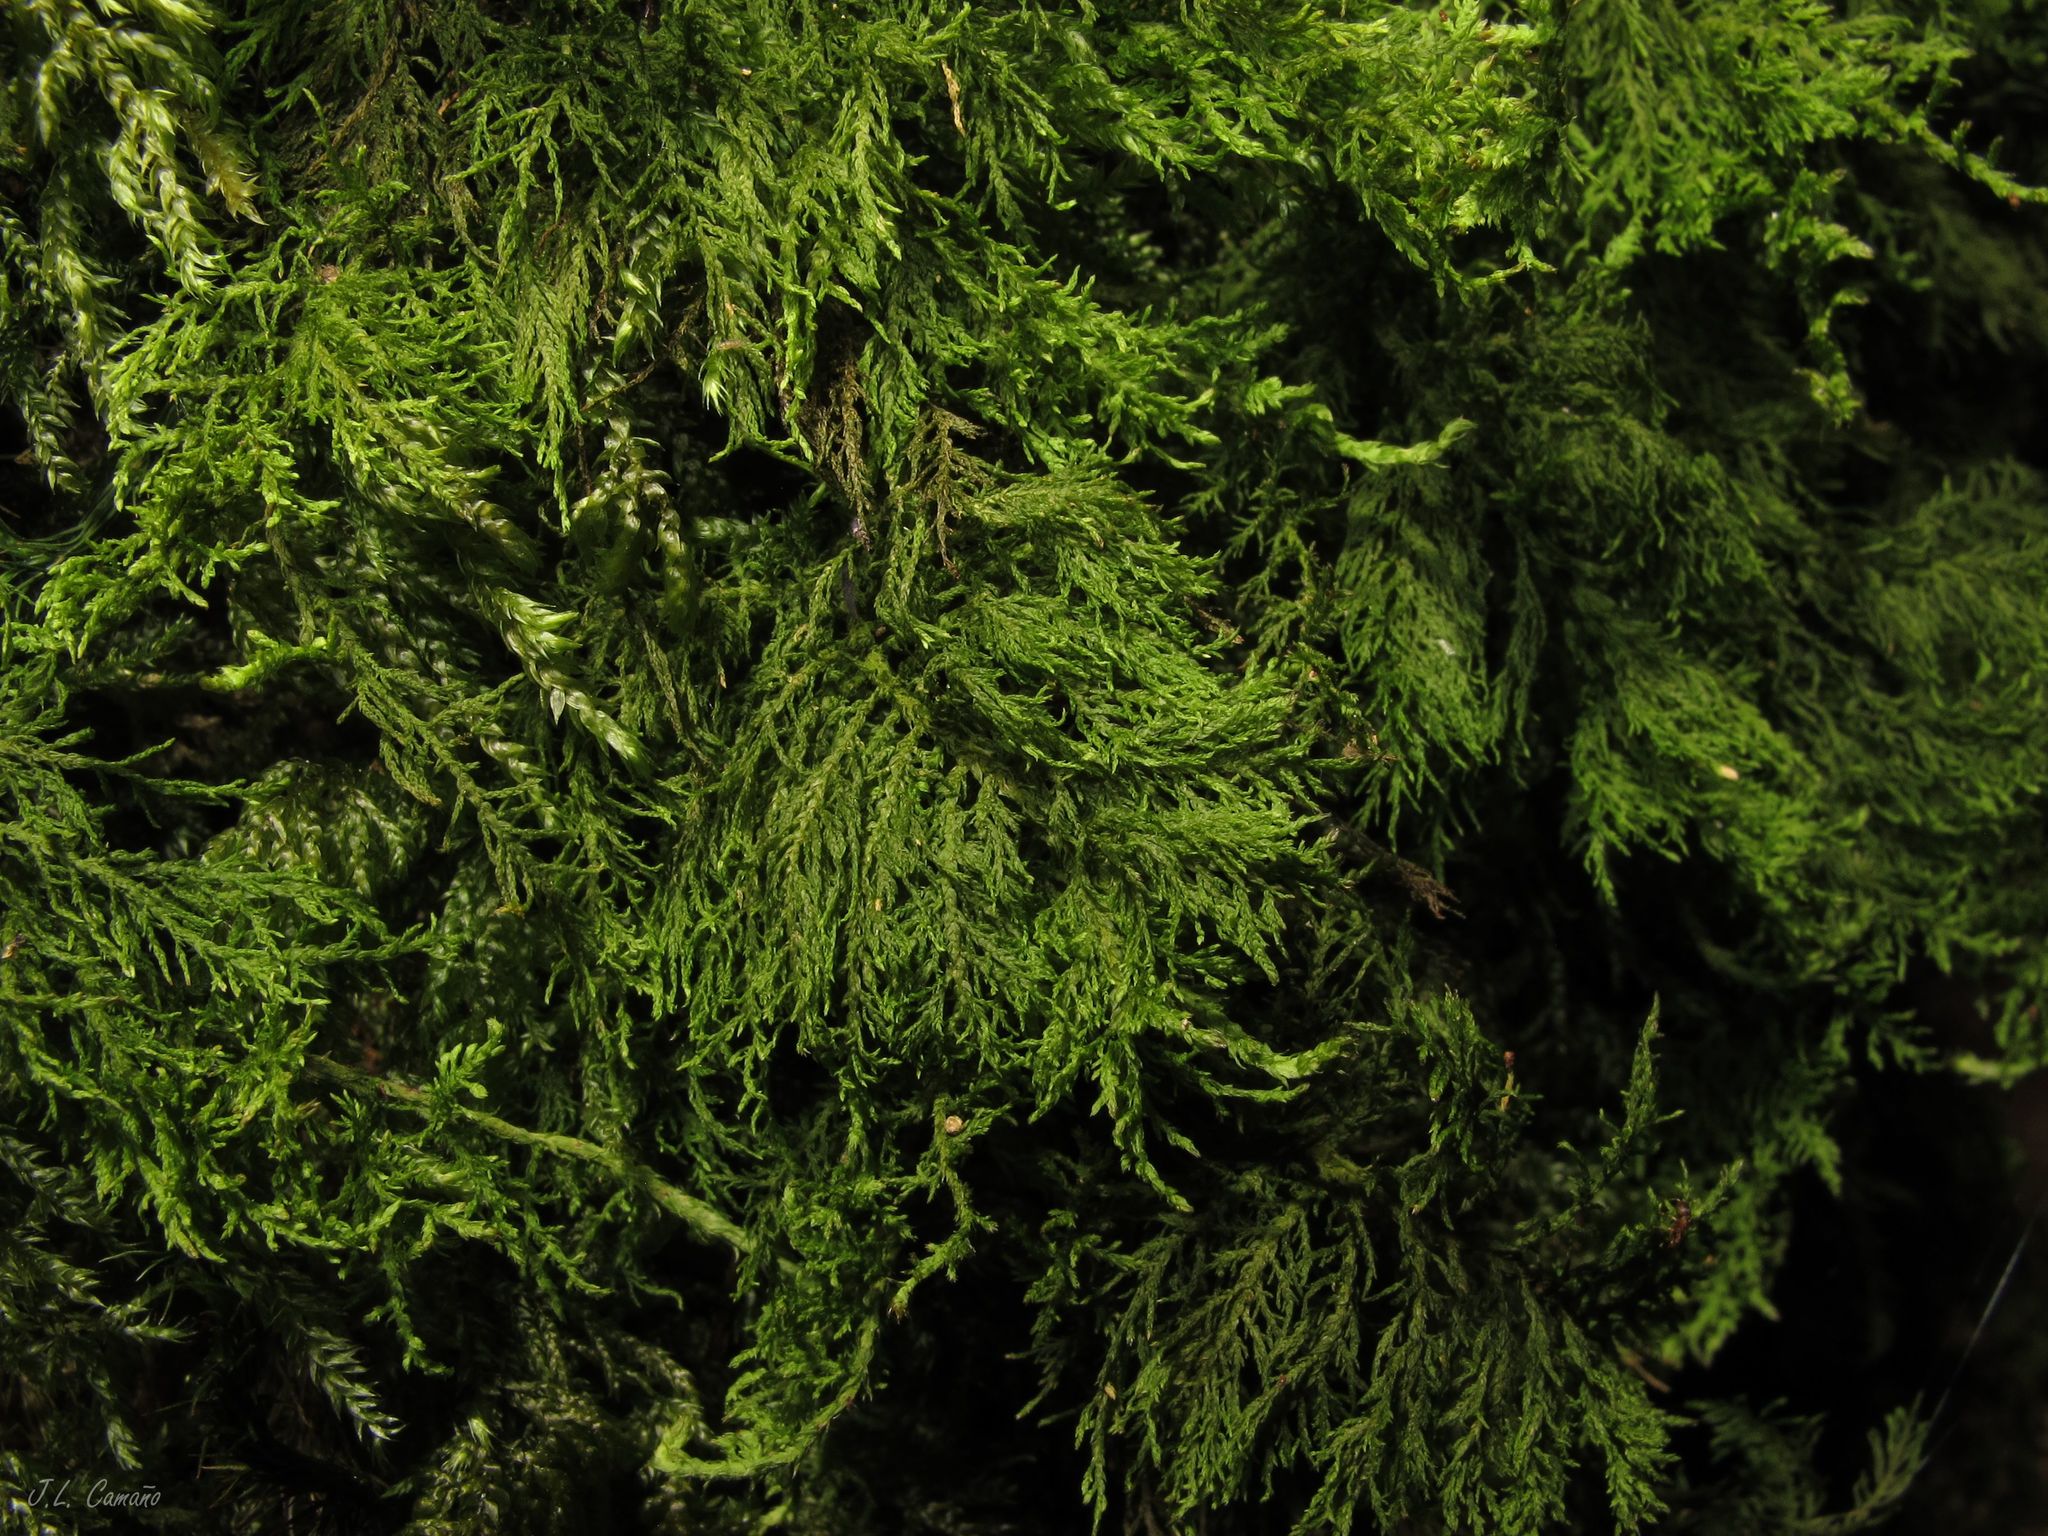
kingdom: Plantae
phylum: Bryophyta
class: Bryopsida
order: Hypnales
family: Thuidiaceae
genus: Thuidium
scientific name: Thuidium tamariscinum
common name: Common tamarisk-moss
